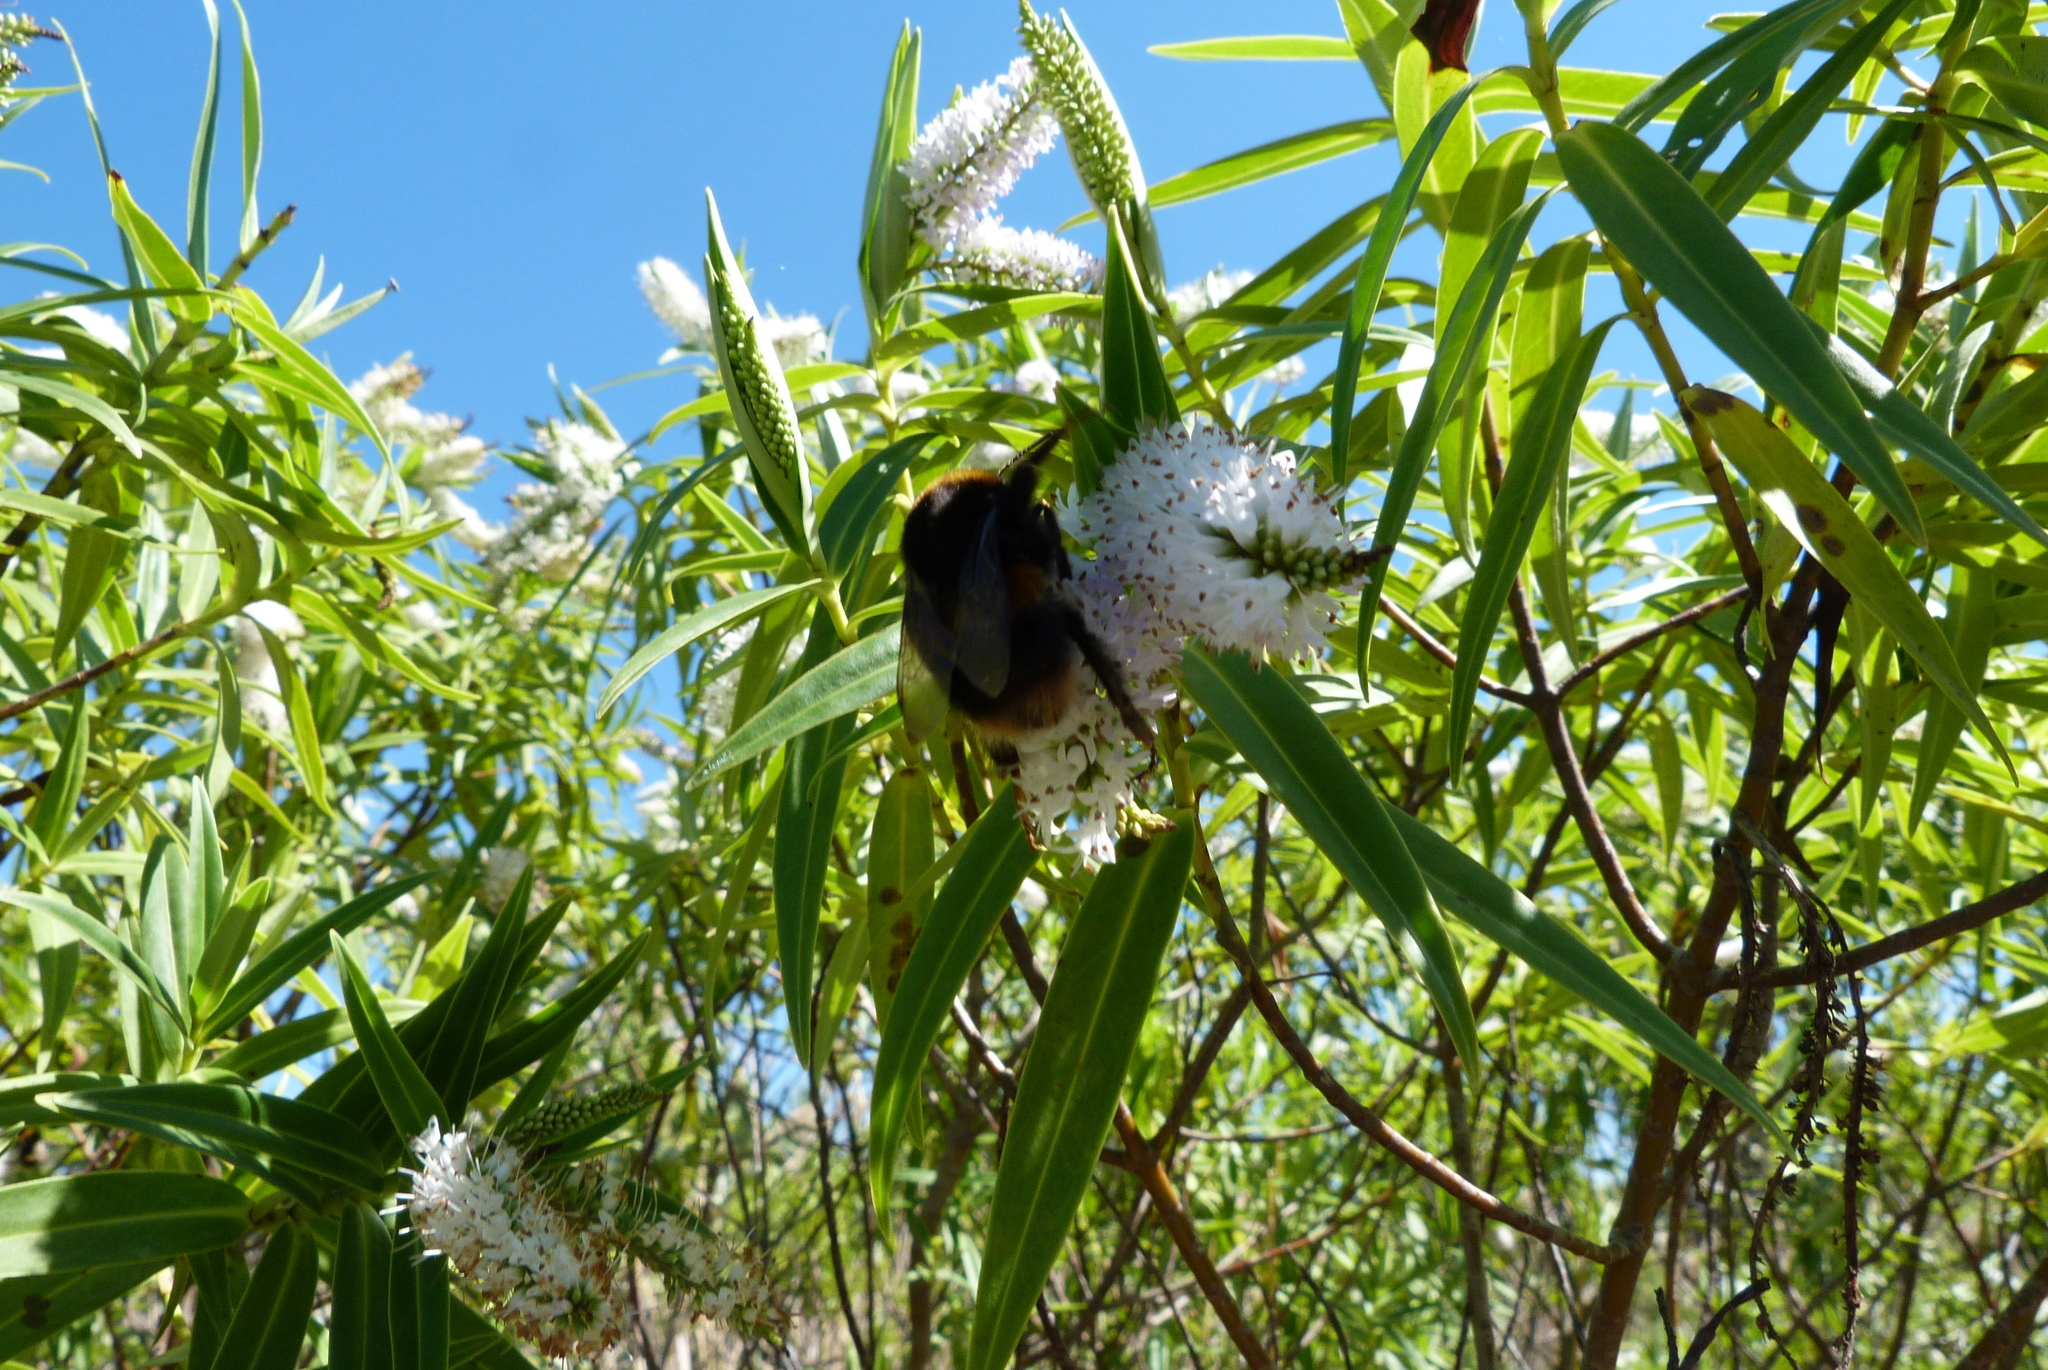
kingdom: Animalia
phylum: Arthropoda
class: Insecta
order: Hymenoptera
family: Apidae
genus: Bombus
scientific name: Bombus terrestris
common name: Buff-tailed bumblebee
